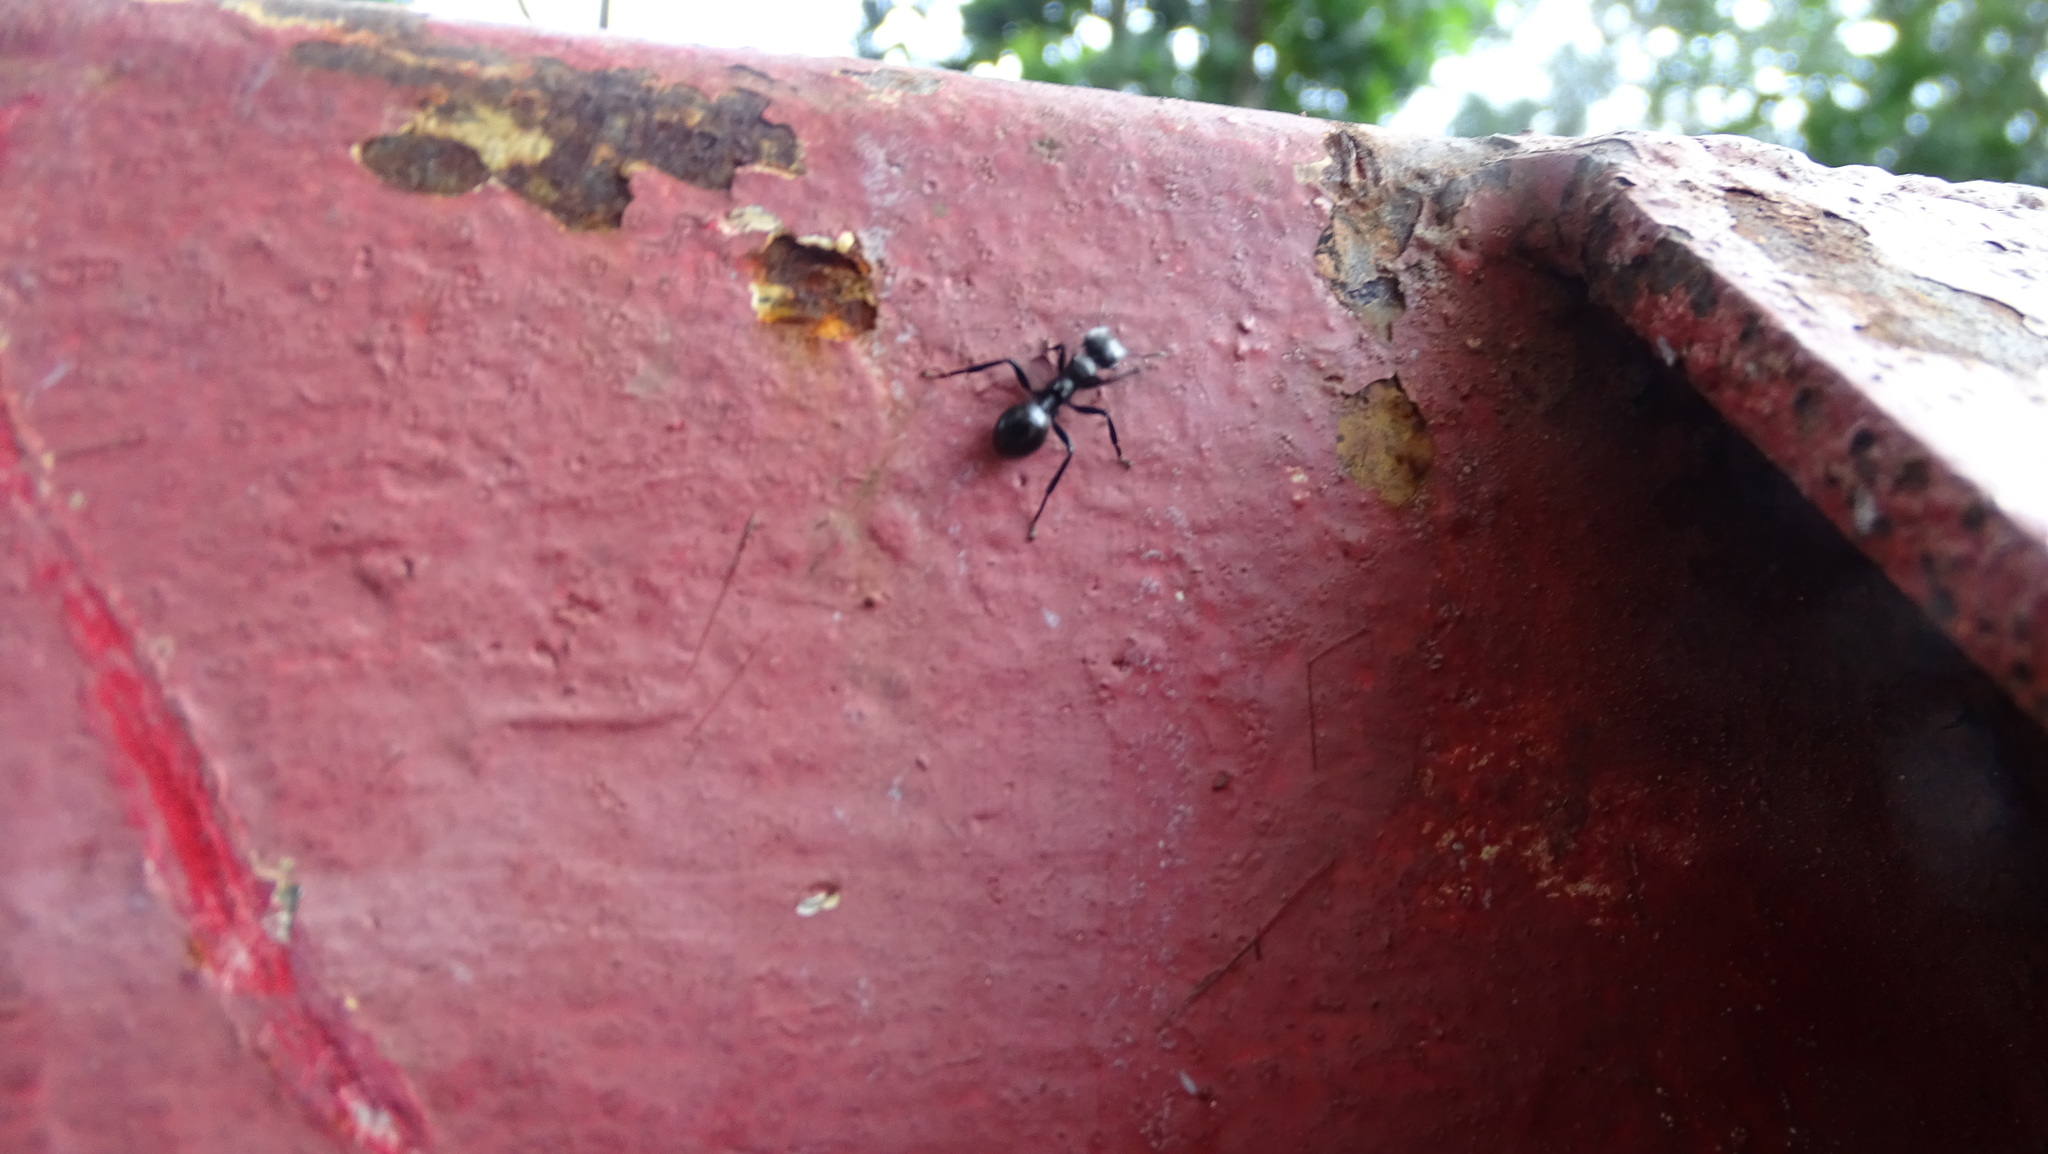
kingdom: Animalia
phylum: Arthropoda
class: Insecta
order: Hymenoptera
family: Formicidae
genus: Cephalotes
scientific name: Cephalotes atratus
